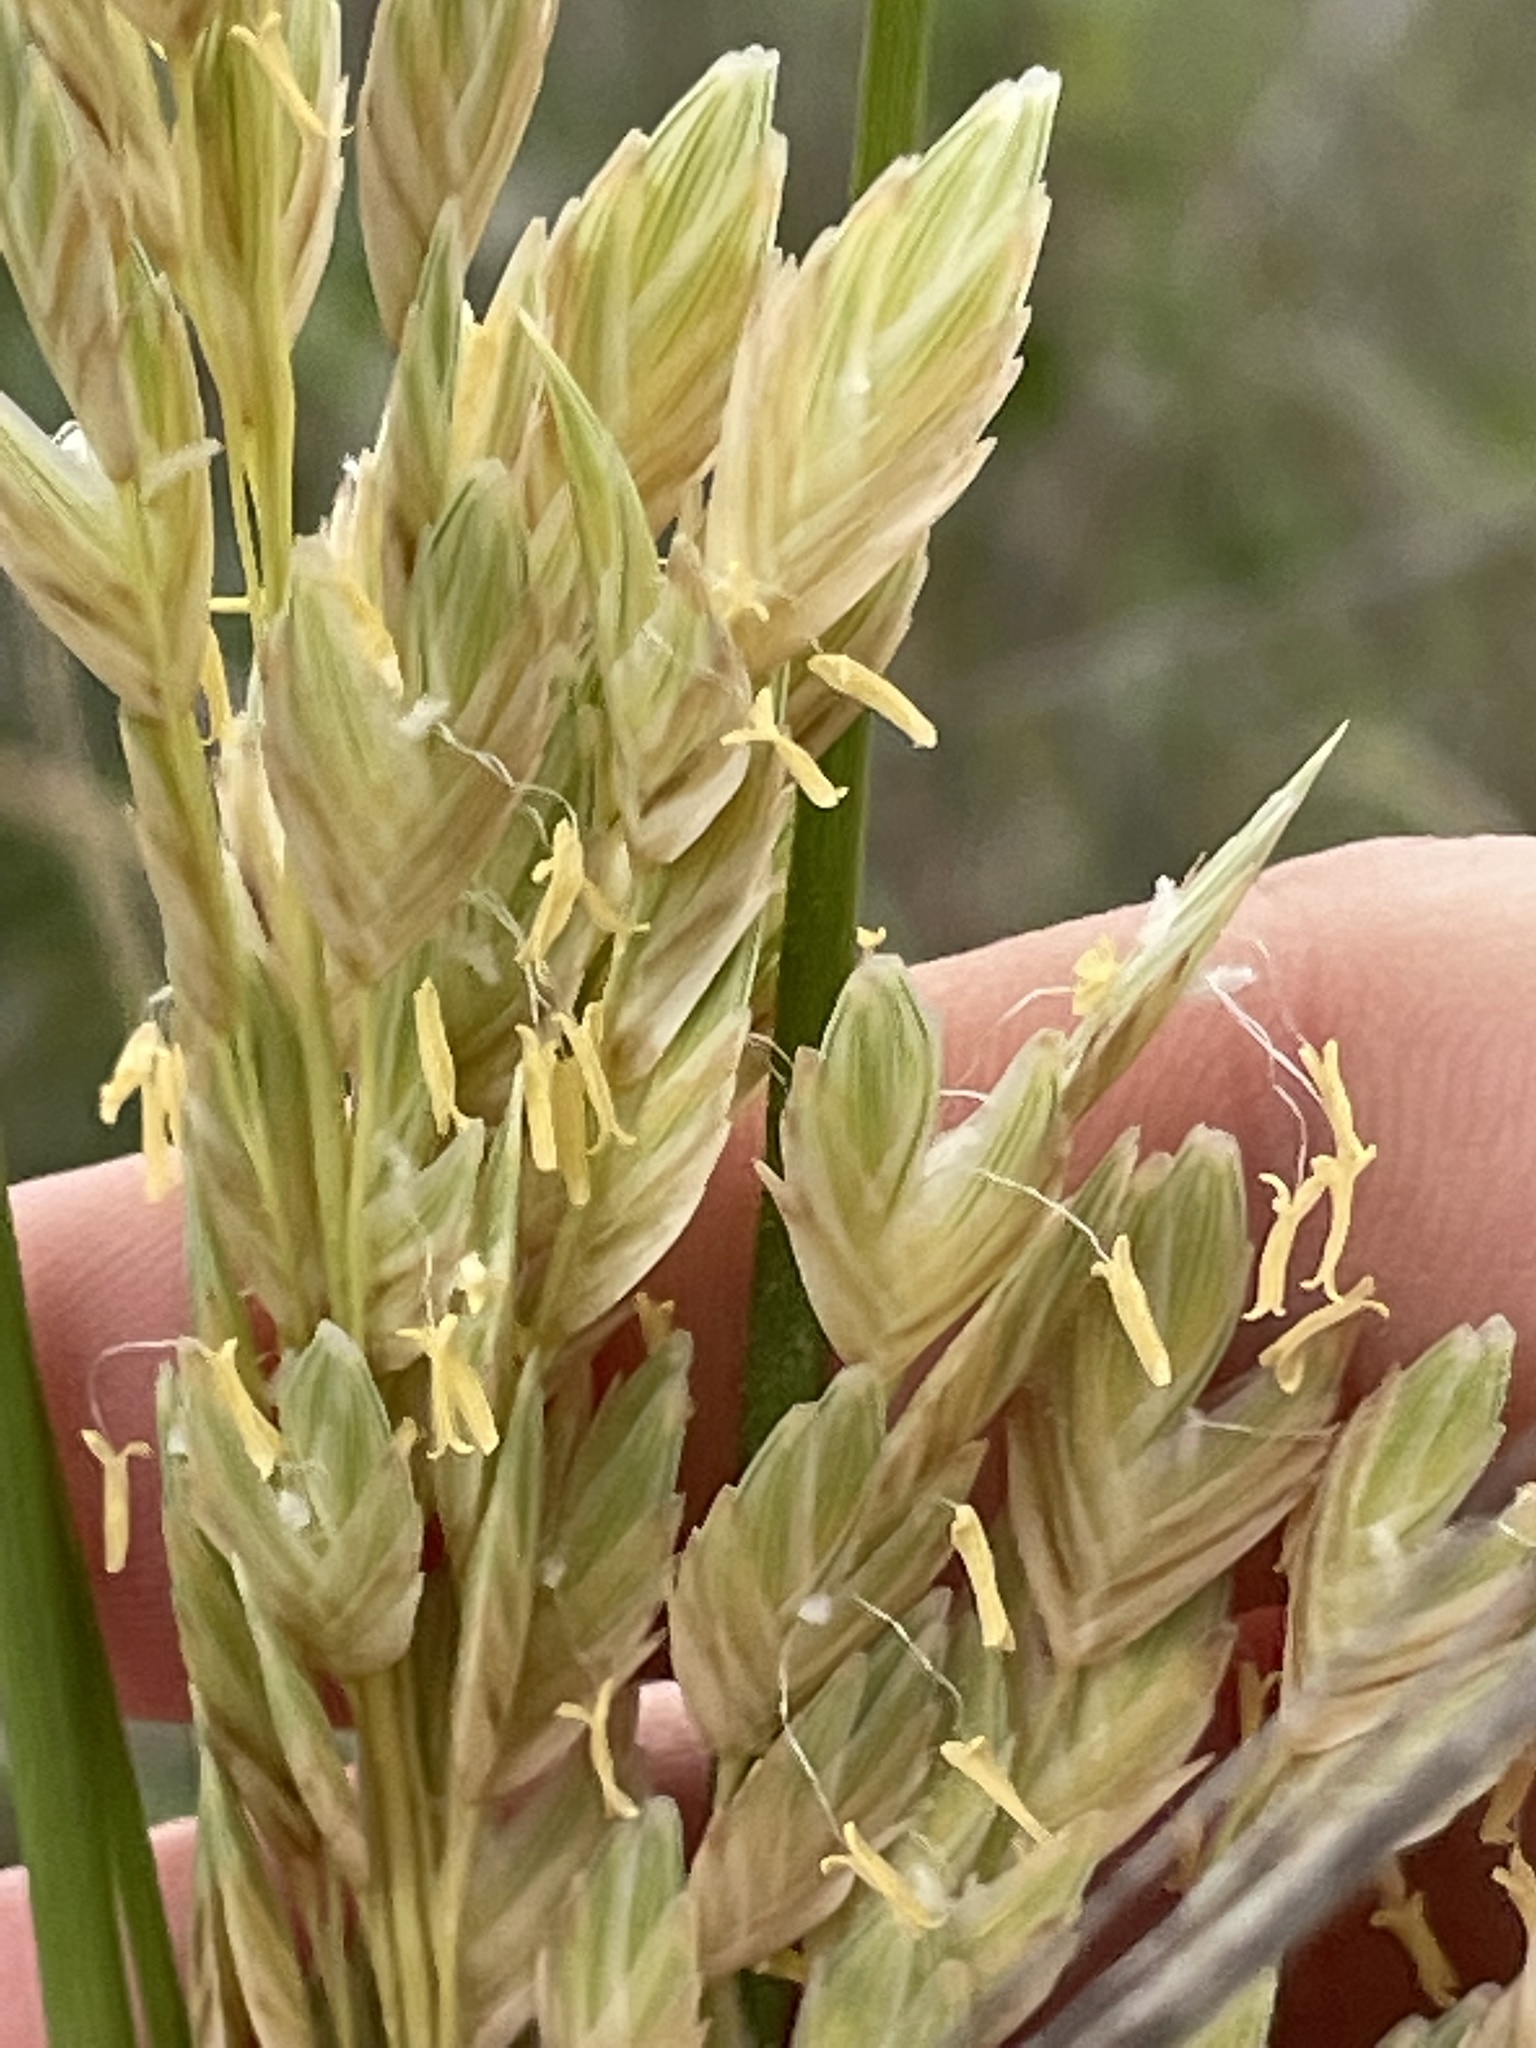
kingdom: Plantae
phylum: Tracheophyta
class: Liliopsida
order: Poales
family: Poaceae
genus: Uniola
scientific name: Uniola paniculata
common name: Seaside-oats
